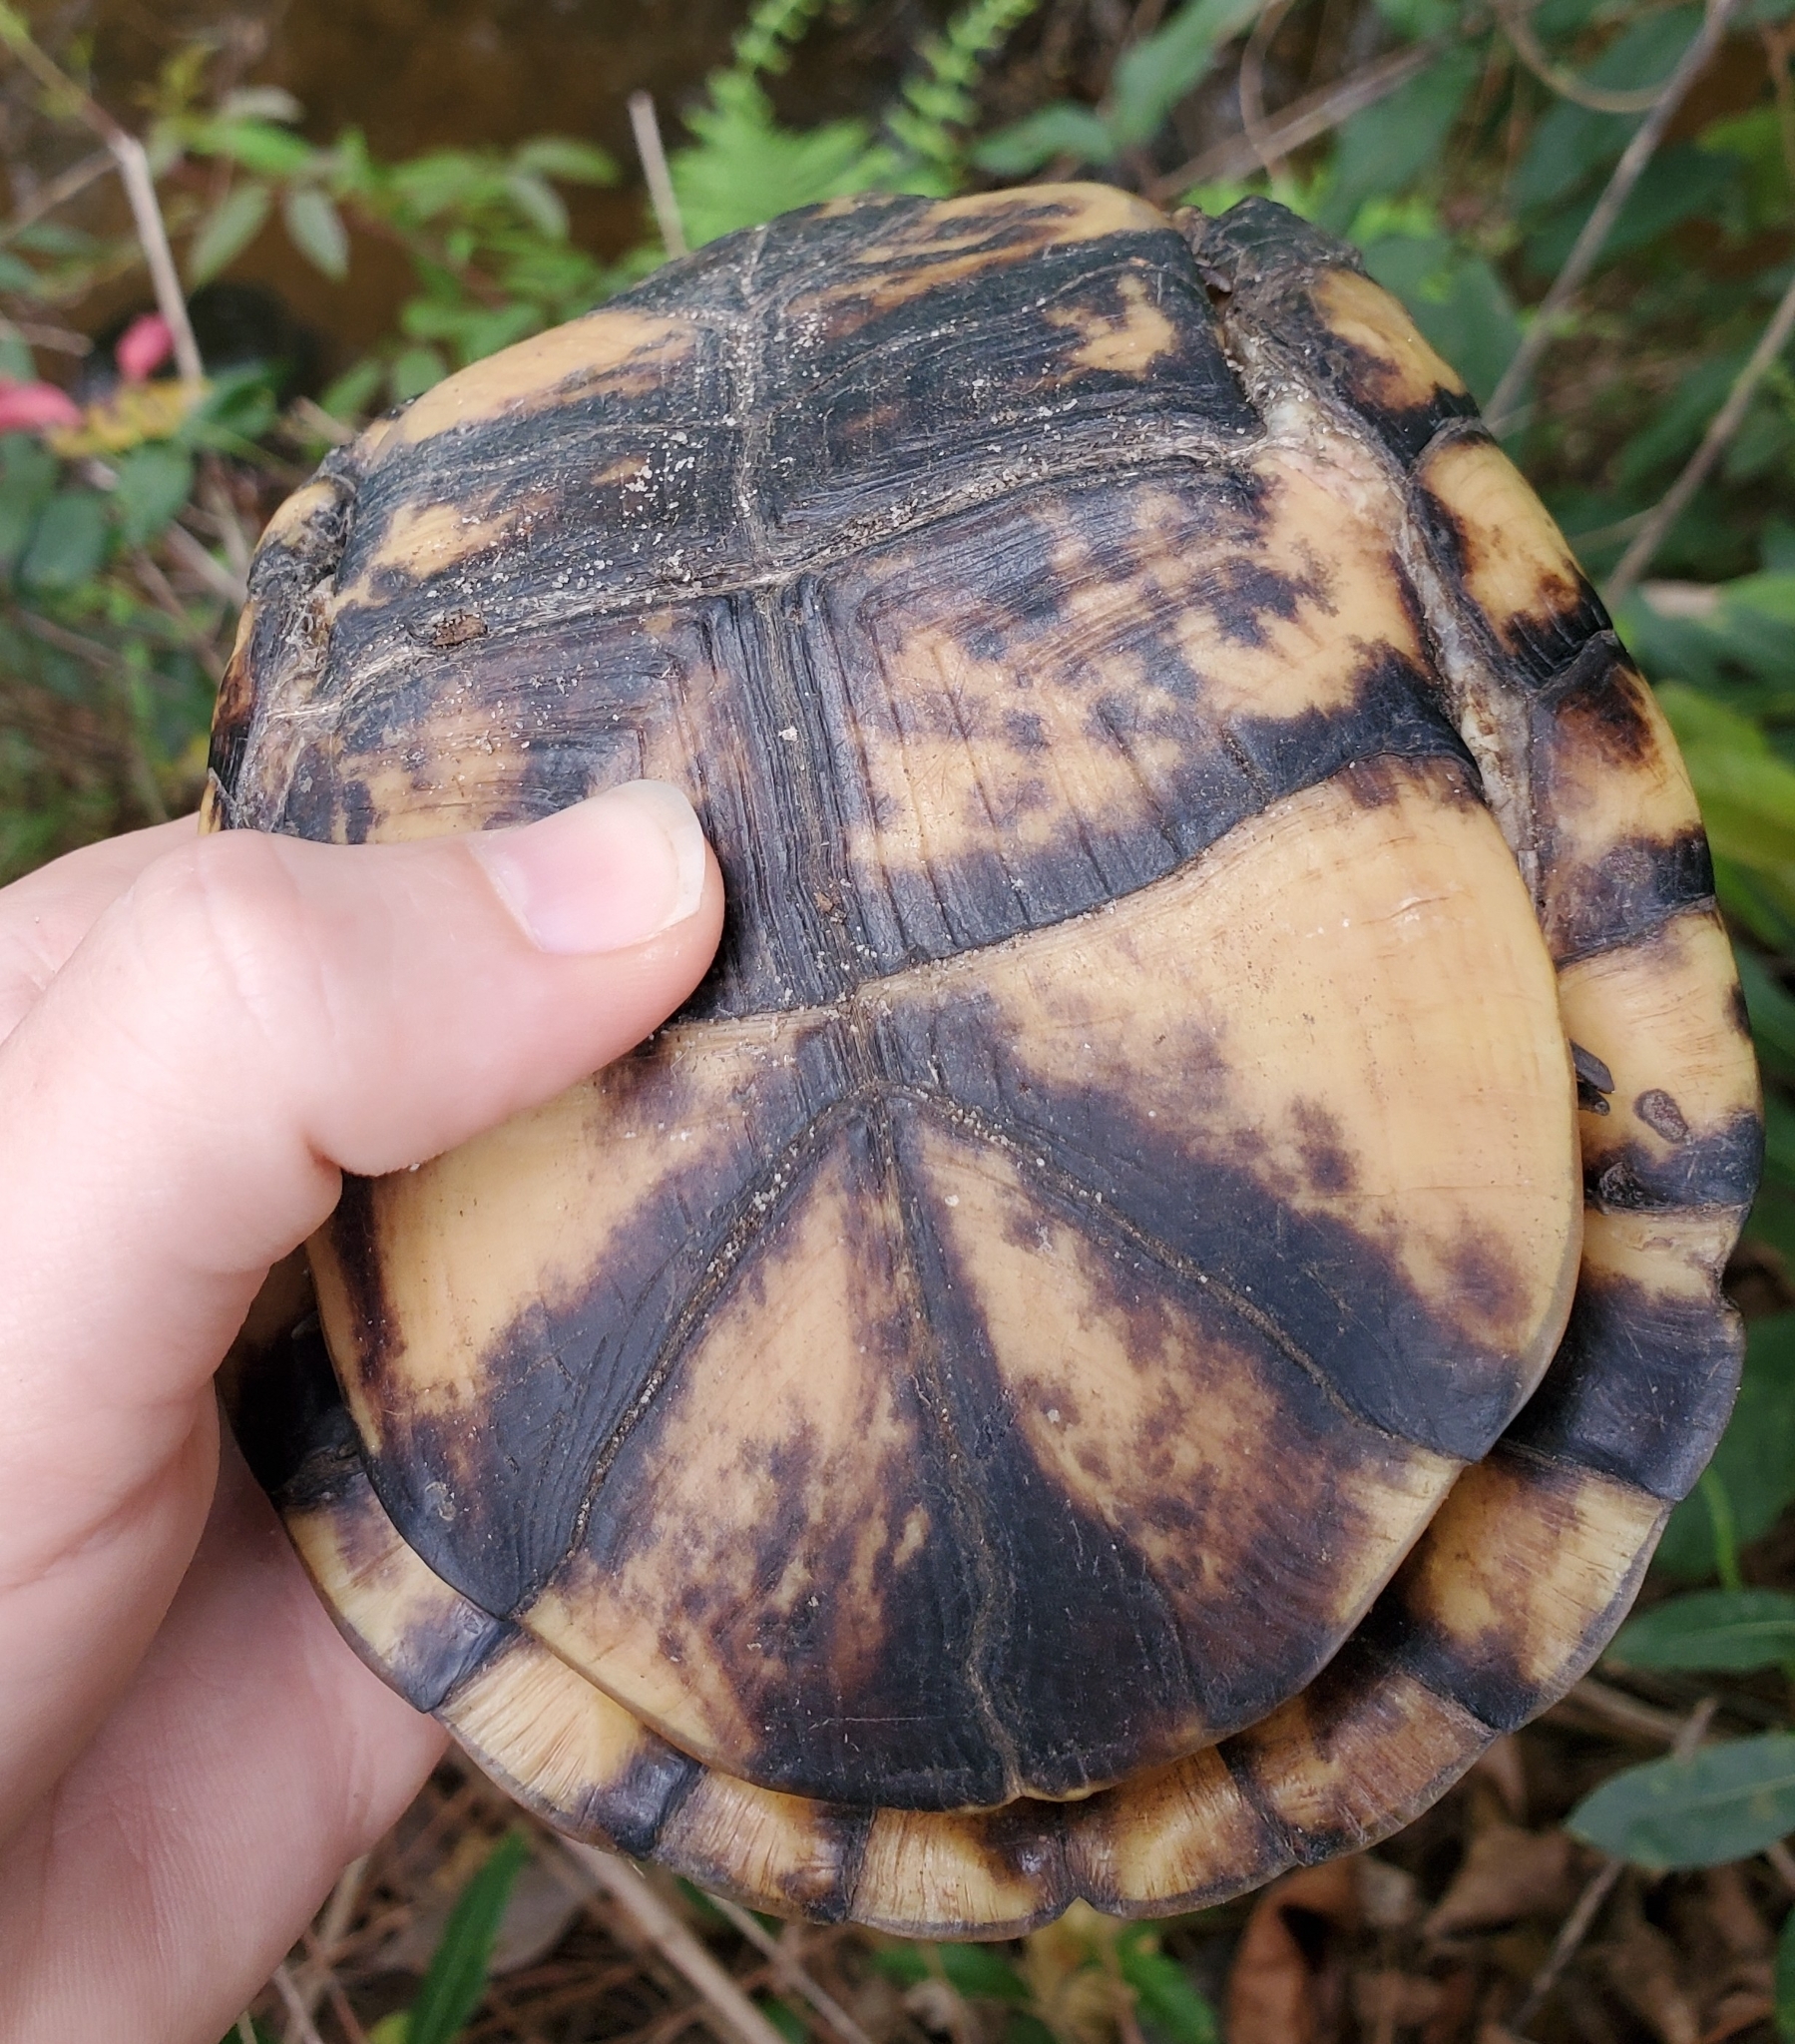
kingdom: Animalia
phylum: Chordata
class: Testudines
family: Emydidae
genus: Terrapene
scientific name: Terrapene carolina
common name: Common box turtle
